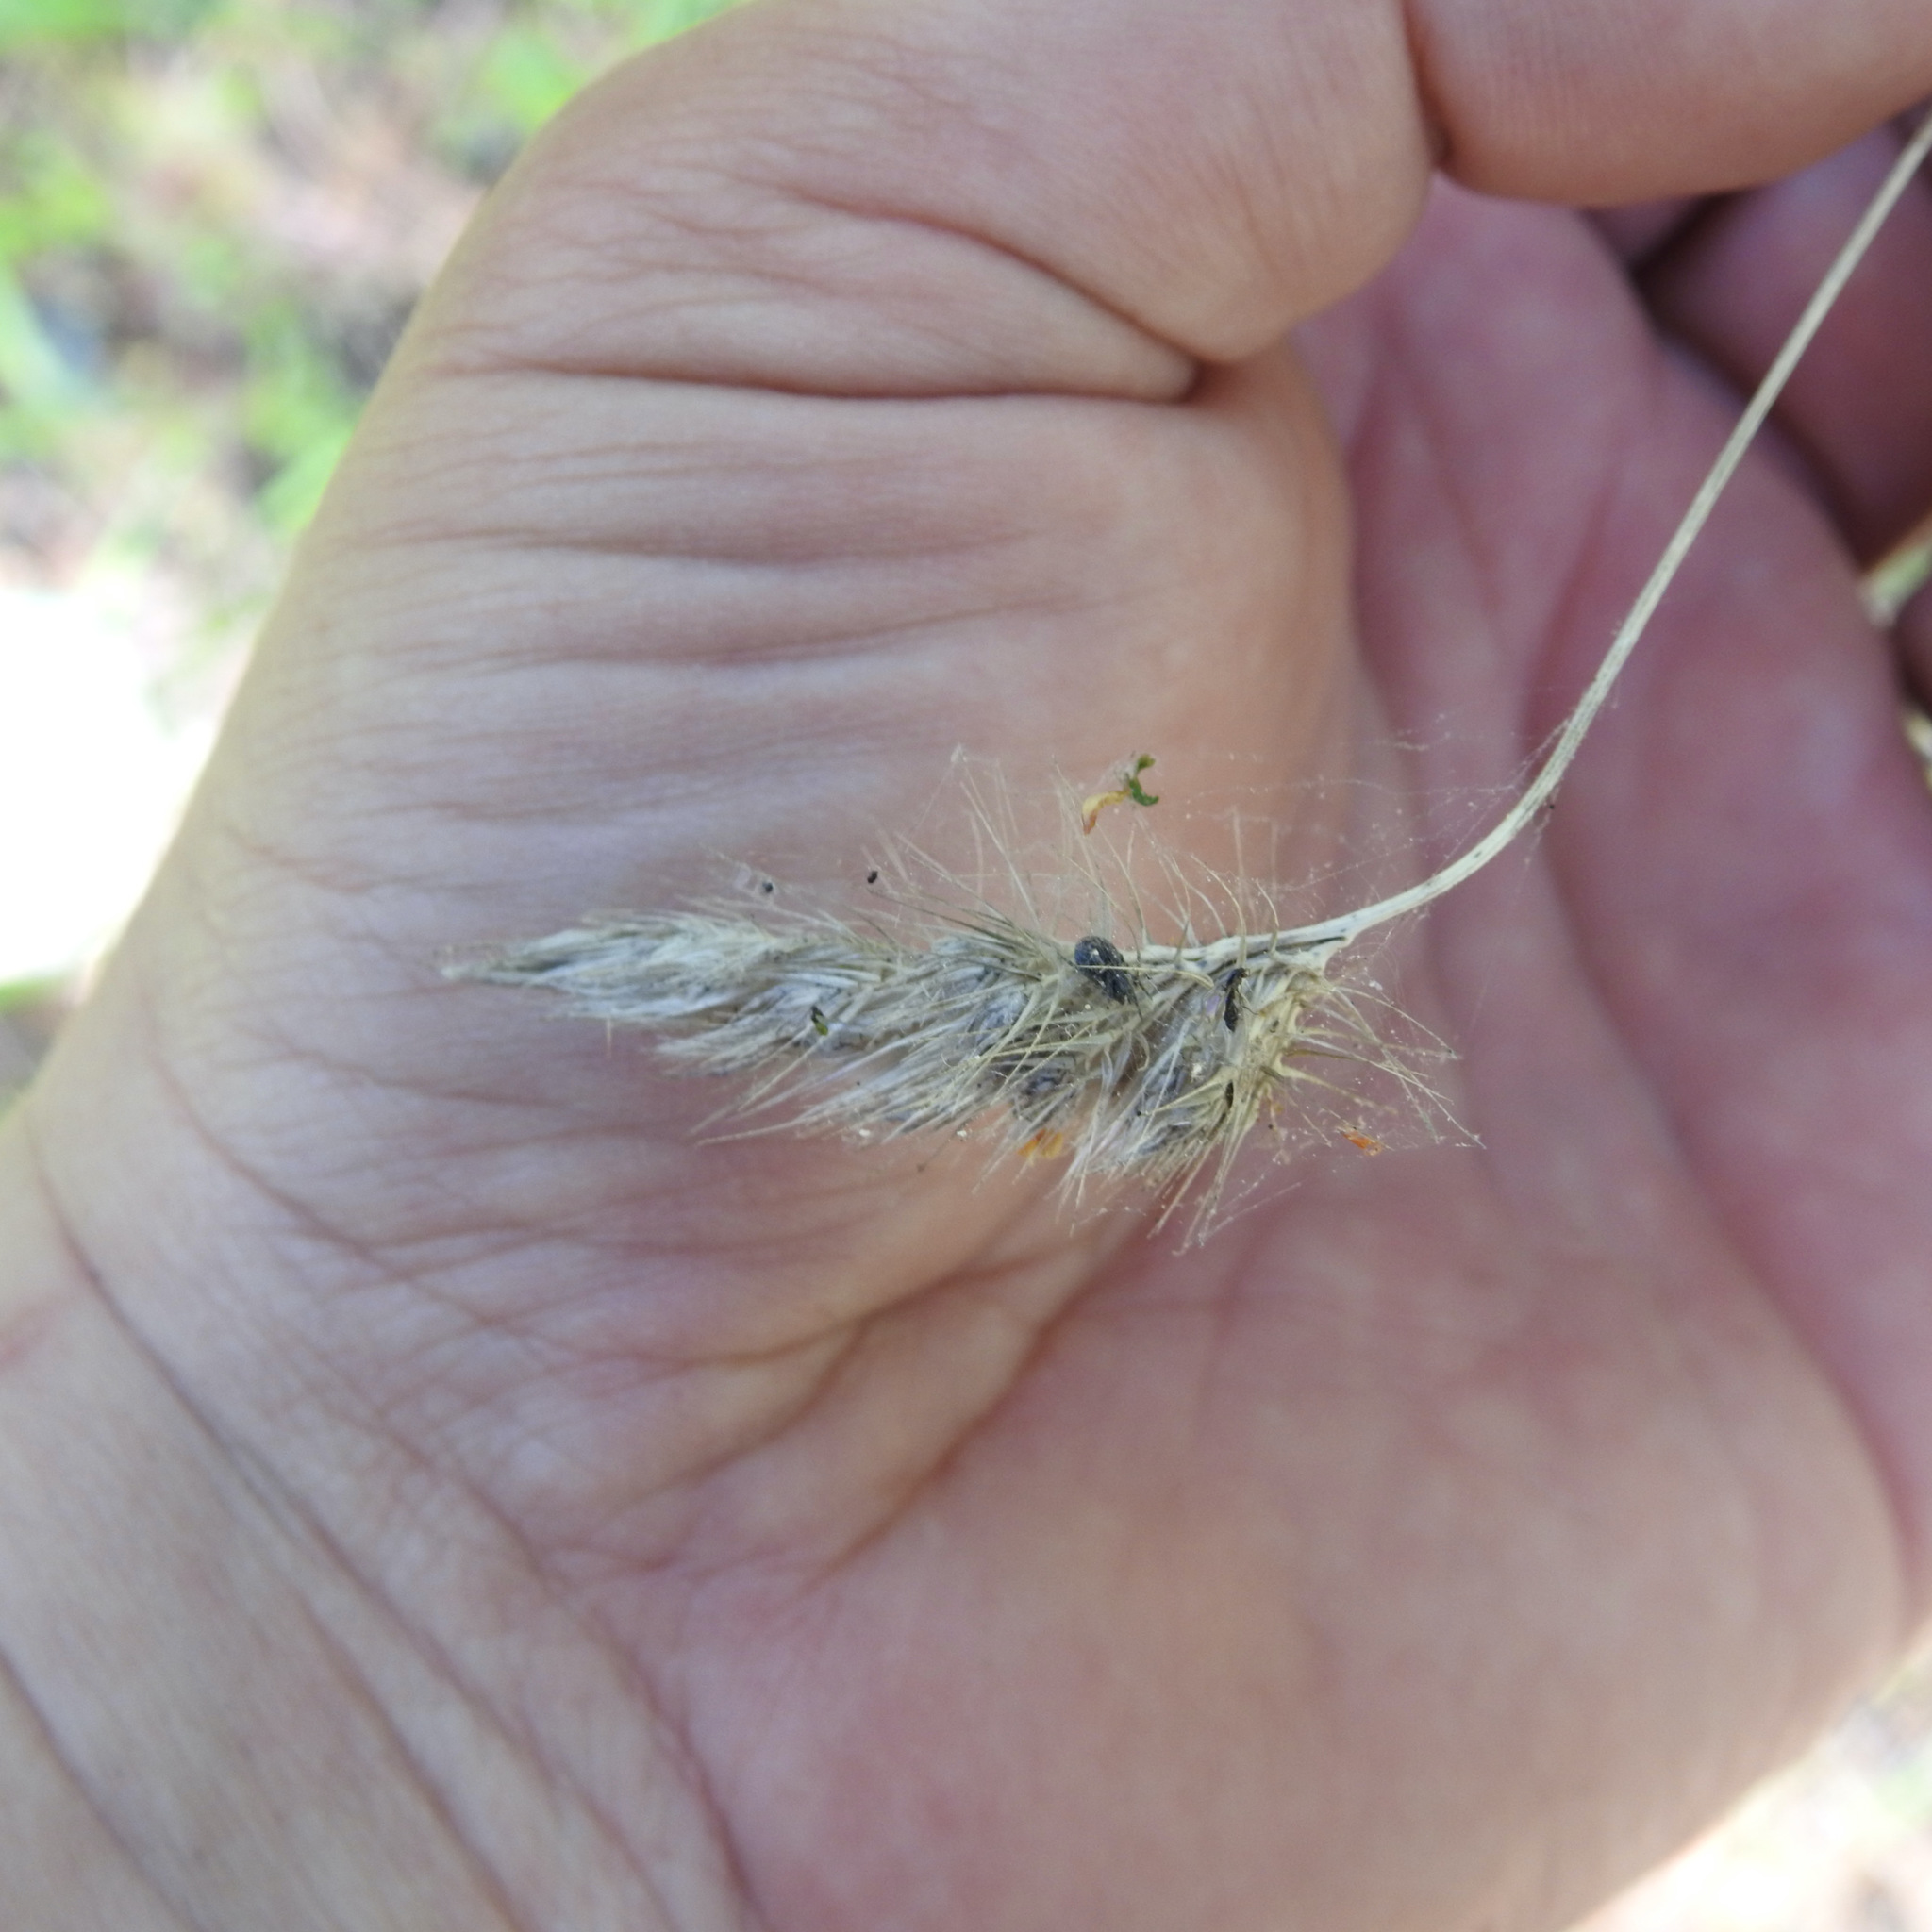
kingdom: Plantae
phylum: Tracheophyta
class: Liliopsida
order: Poales
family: Poaceae
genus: Cynosurus
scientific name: Cynosurus echinatus
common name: Rough dog's-tail
